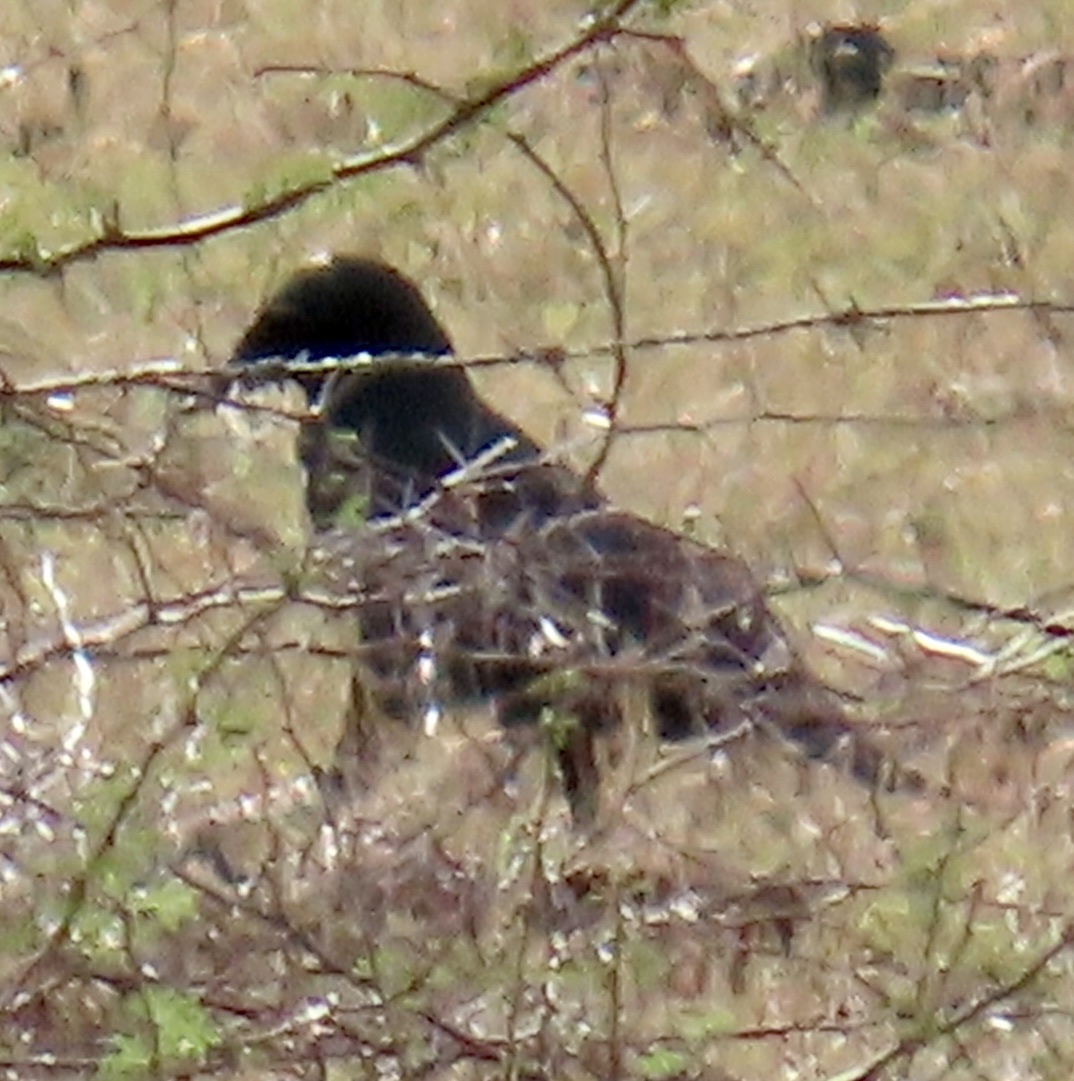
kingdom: Animalia
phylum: Chordata
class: Aves
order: Passeriformes
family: Corvidae
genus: Corvus
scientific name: Corvus minutus
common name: Cuban palm crow
